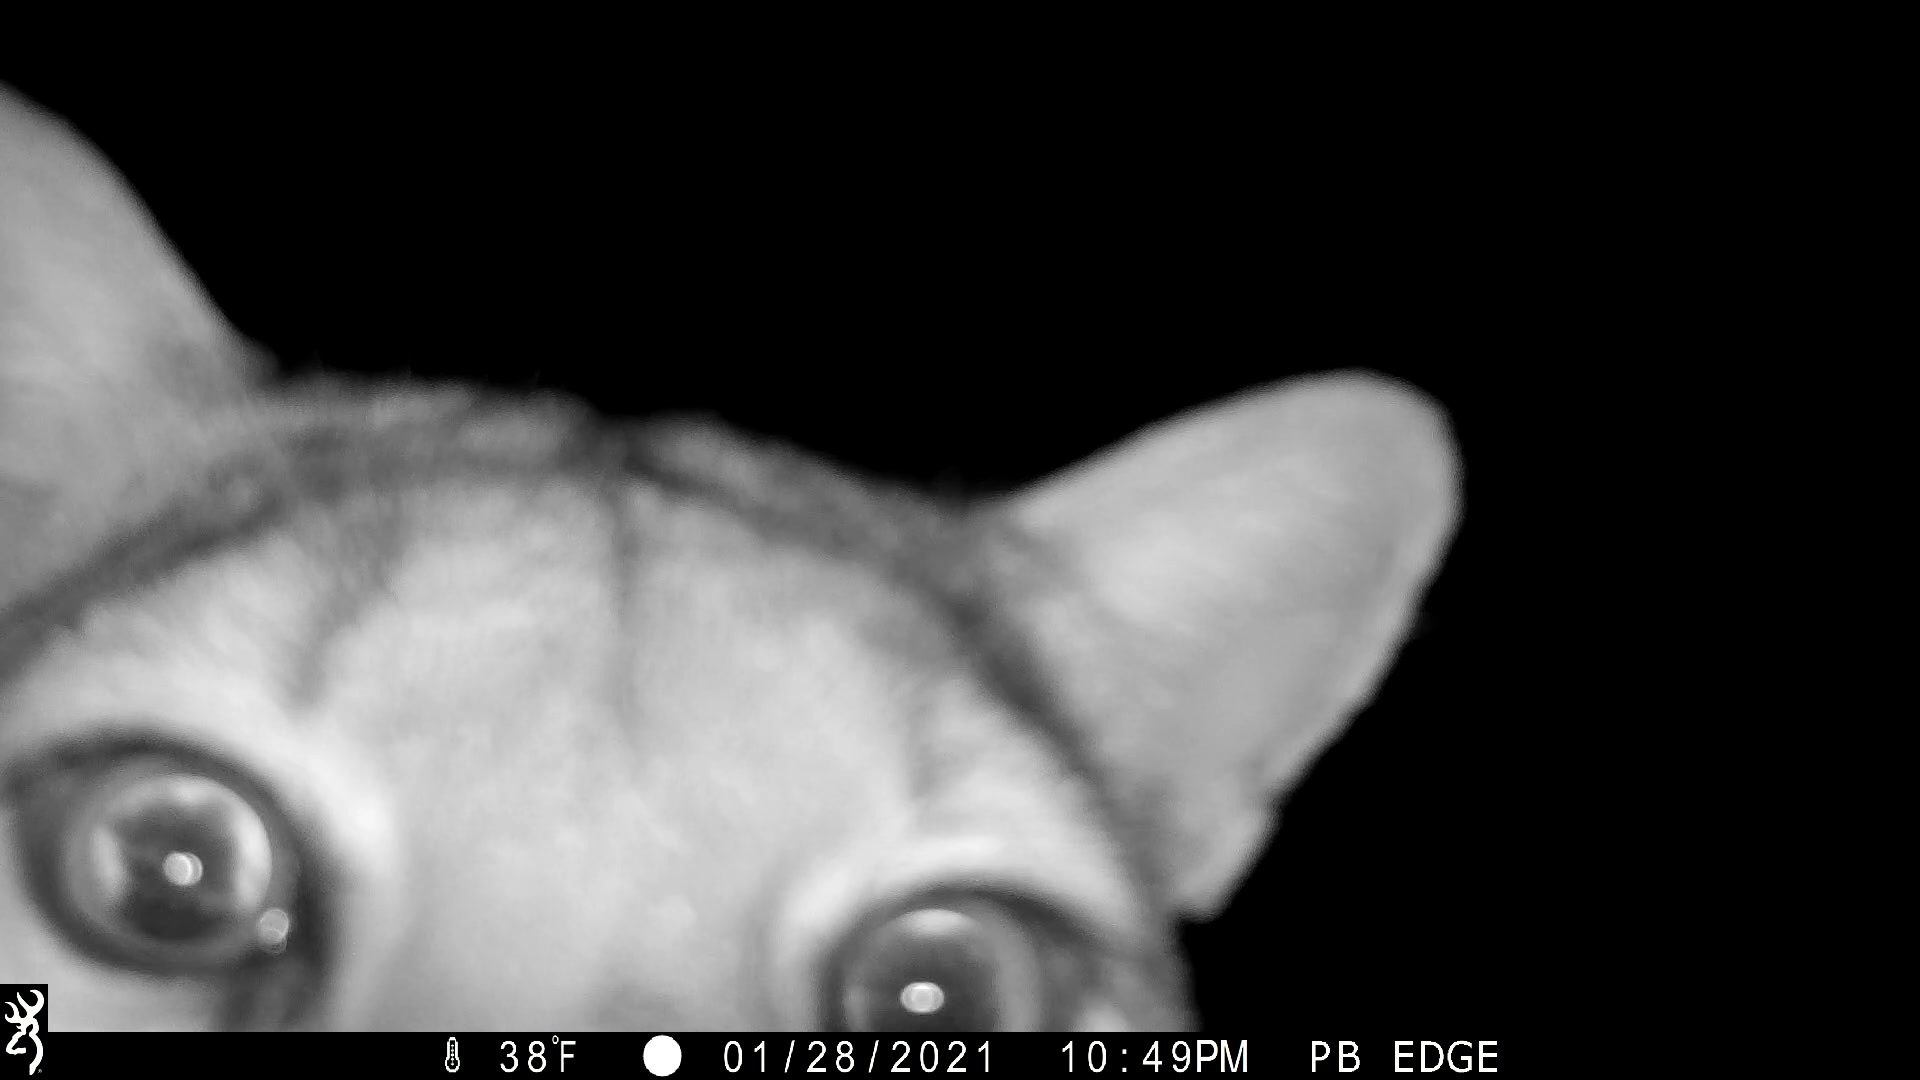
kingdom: Animalia
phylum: Chordata
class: Mammalia
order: Carnivora
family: Felidae
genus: Puma
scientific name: Puma concolor
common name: Puma
